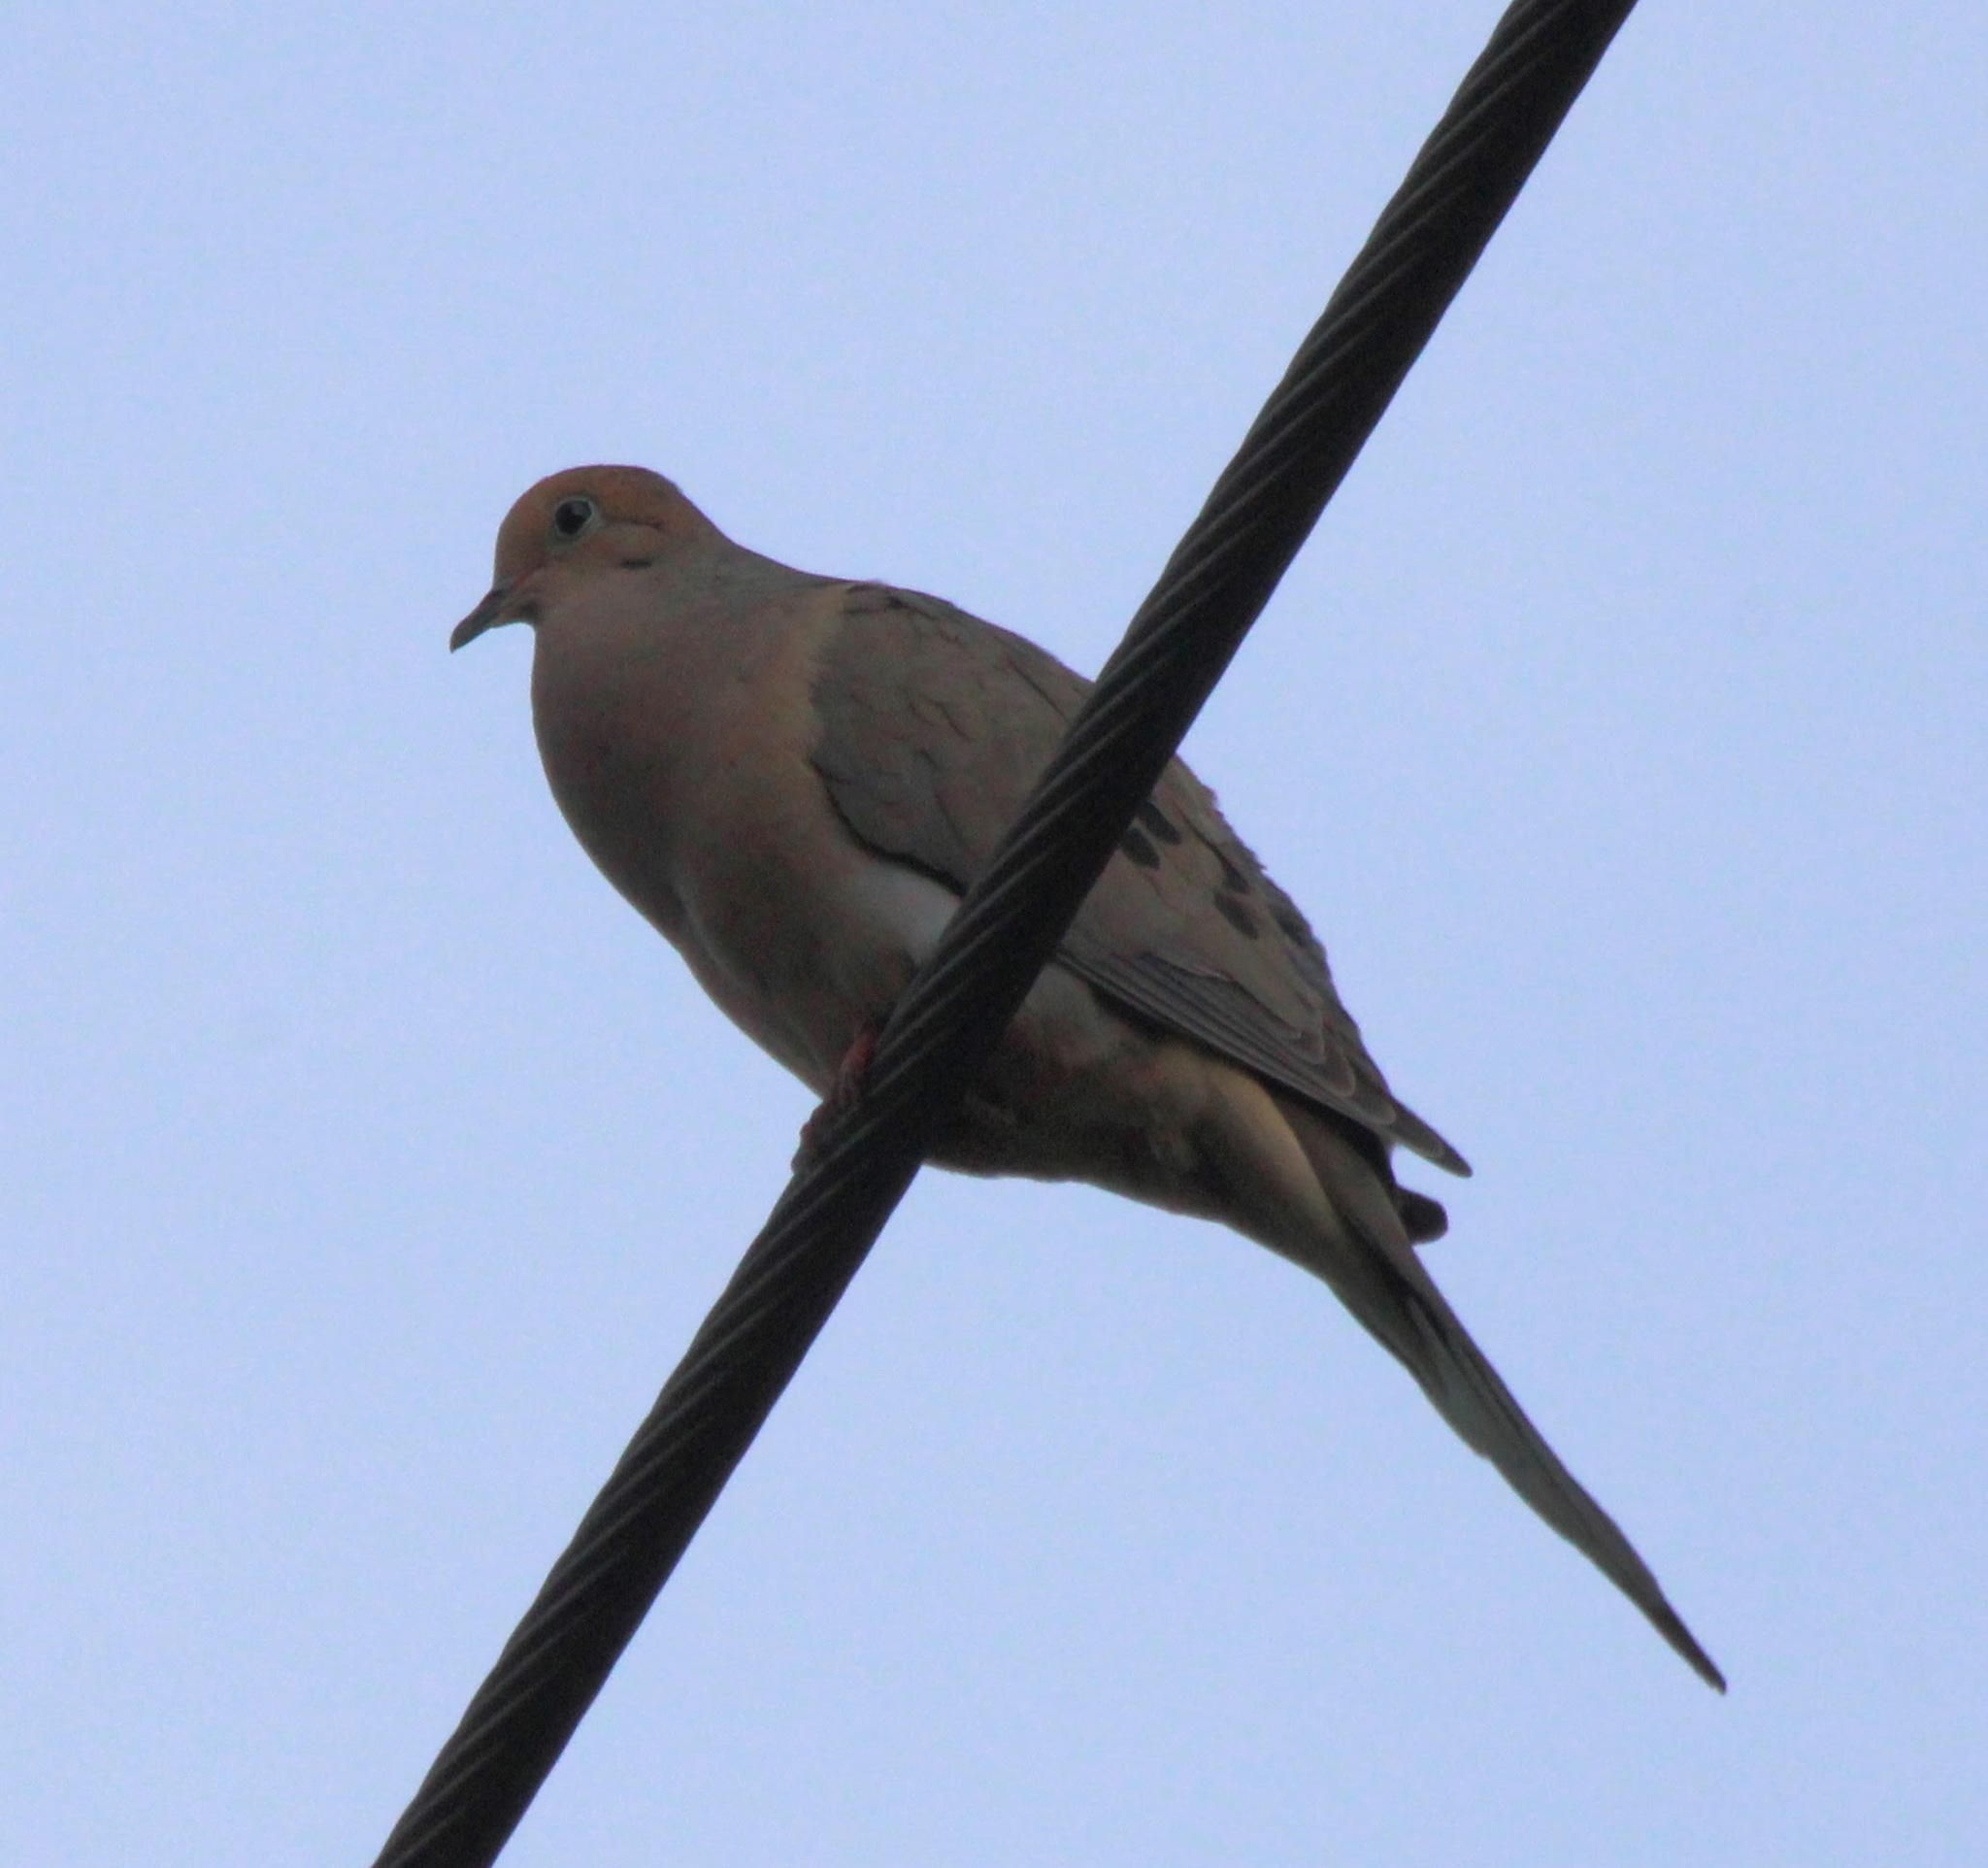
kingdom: Animalia
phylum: Chordata
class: Aves
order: Columbiformes
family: Columbidae
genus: Zenaida
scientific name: Zenaida macroura
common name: Mourning dove
